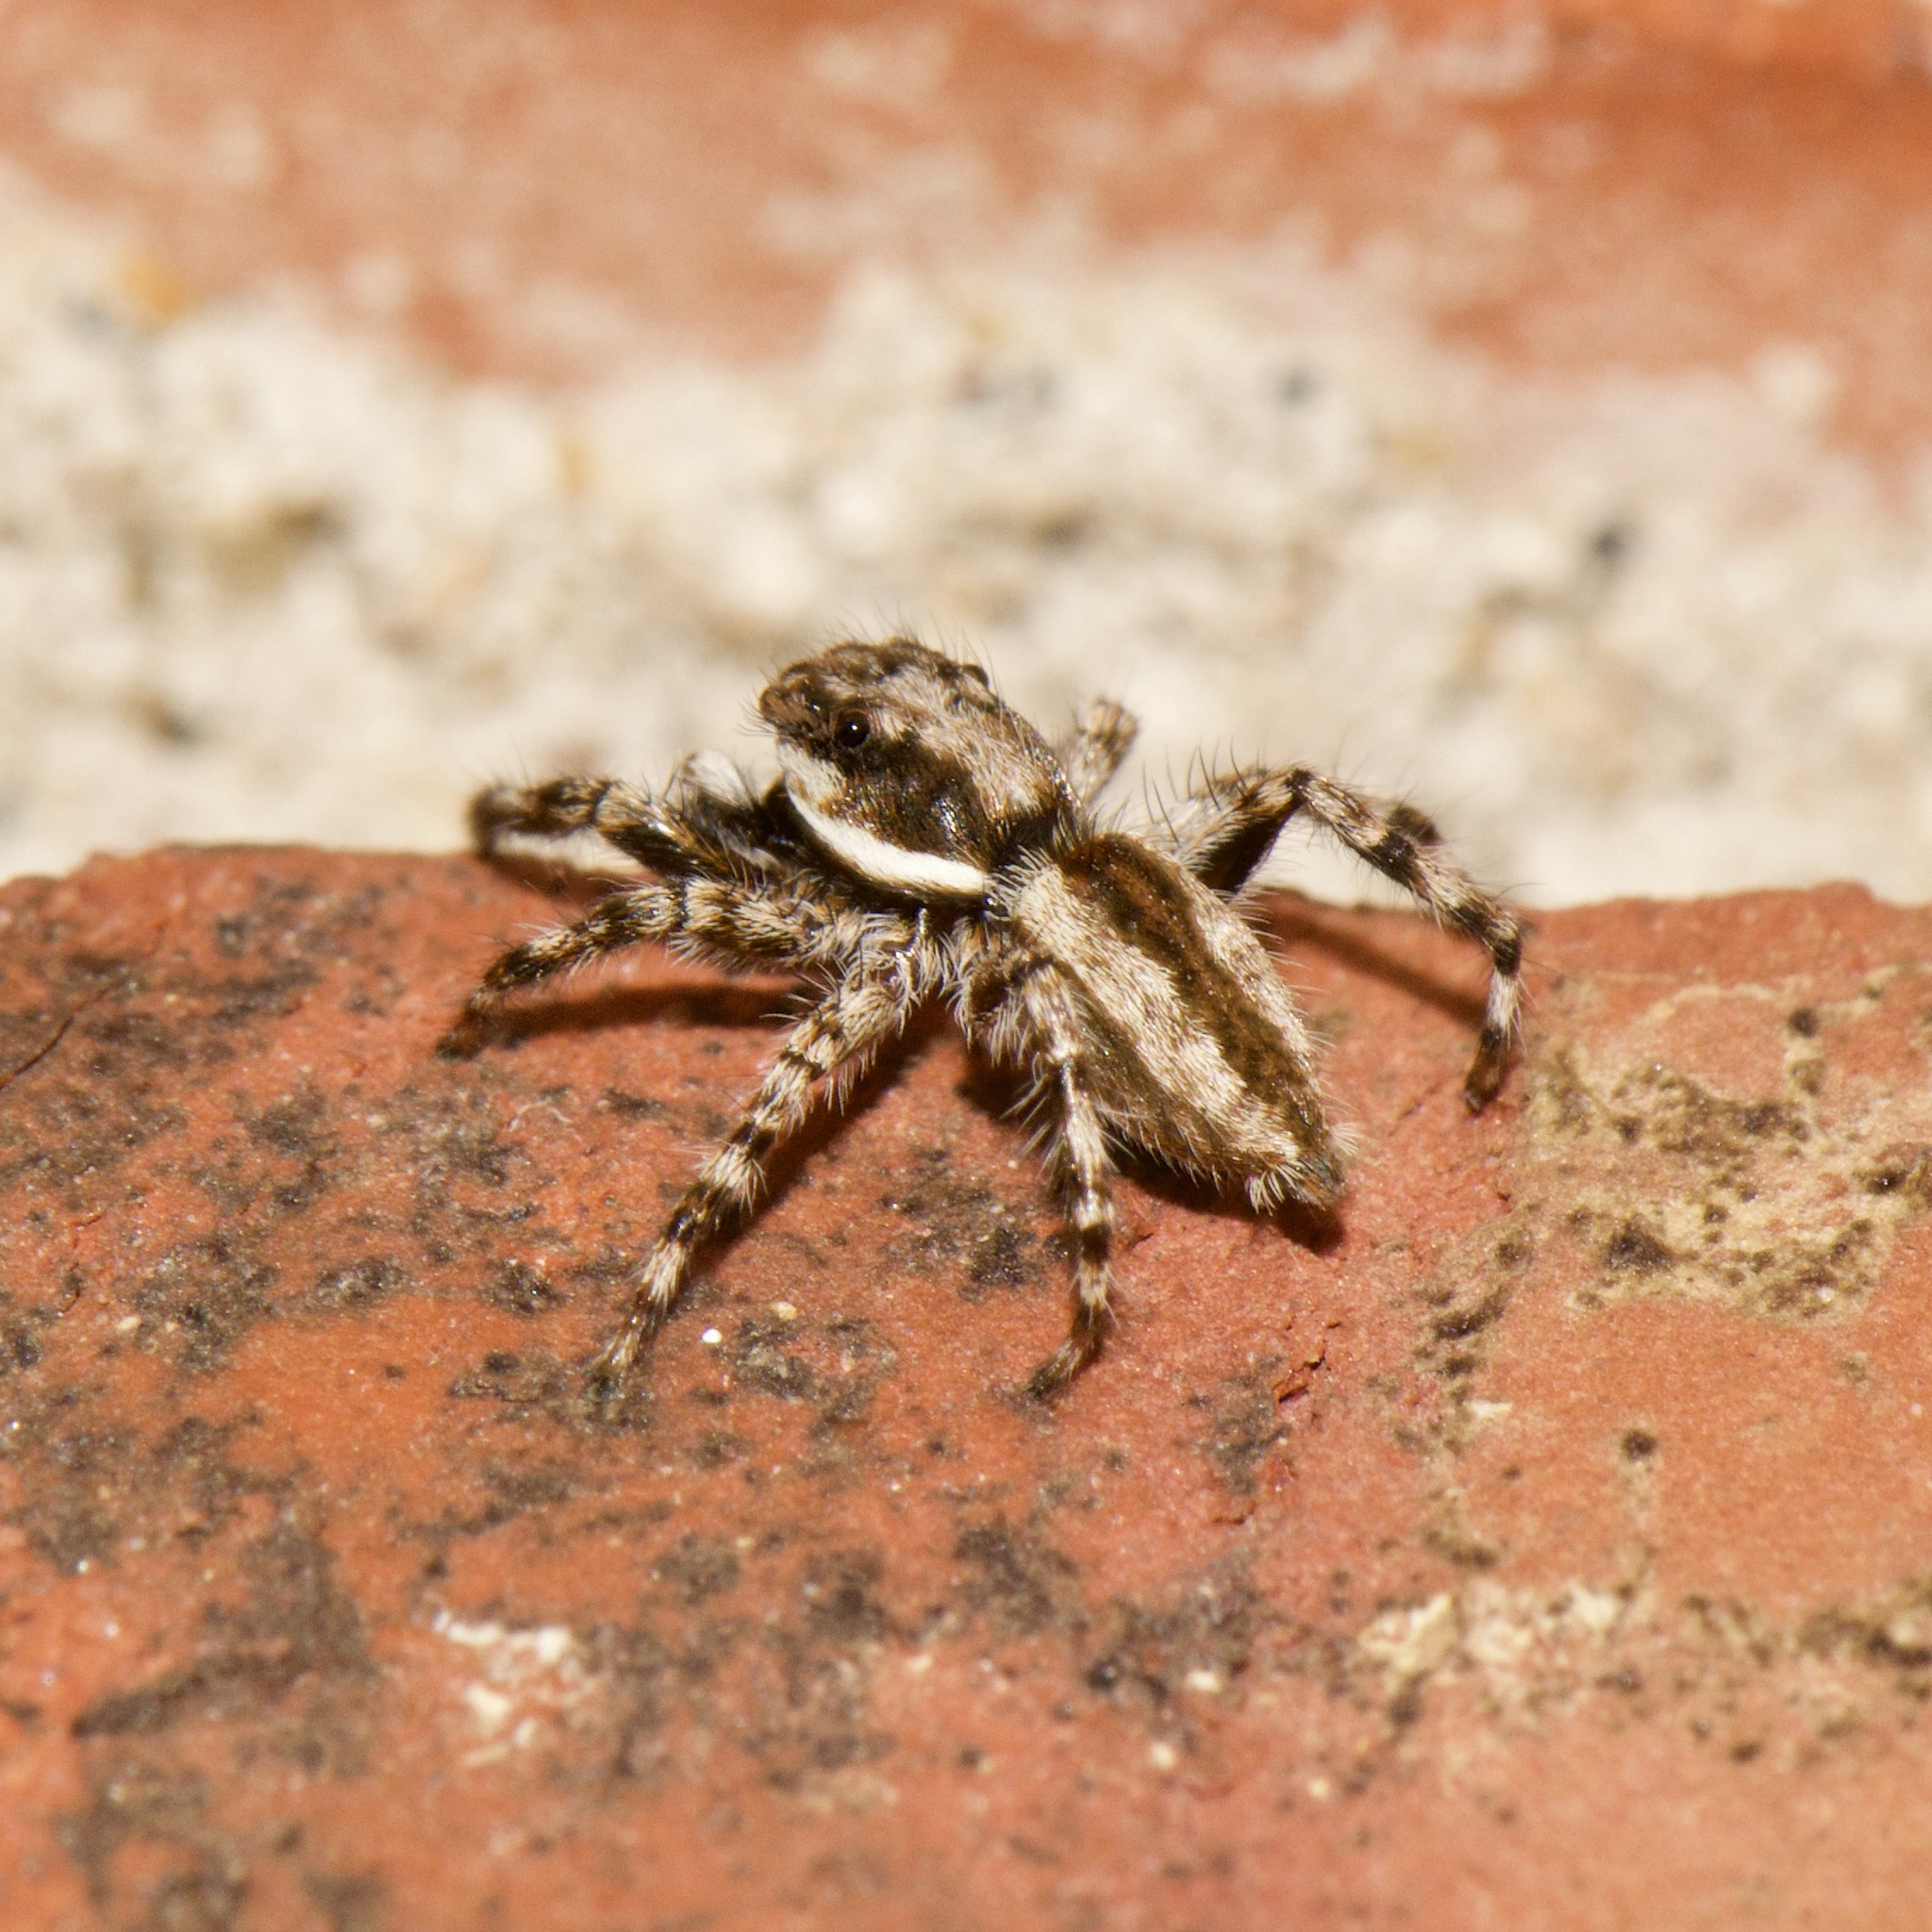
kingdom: Animalia
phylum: Arthropoda
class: Arachnida
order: Araneae
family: Salticidae
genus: Menemerus
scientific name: Menemerus bivittatus
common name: Gray wall jumper
